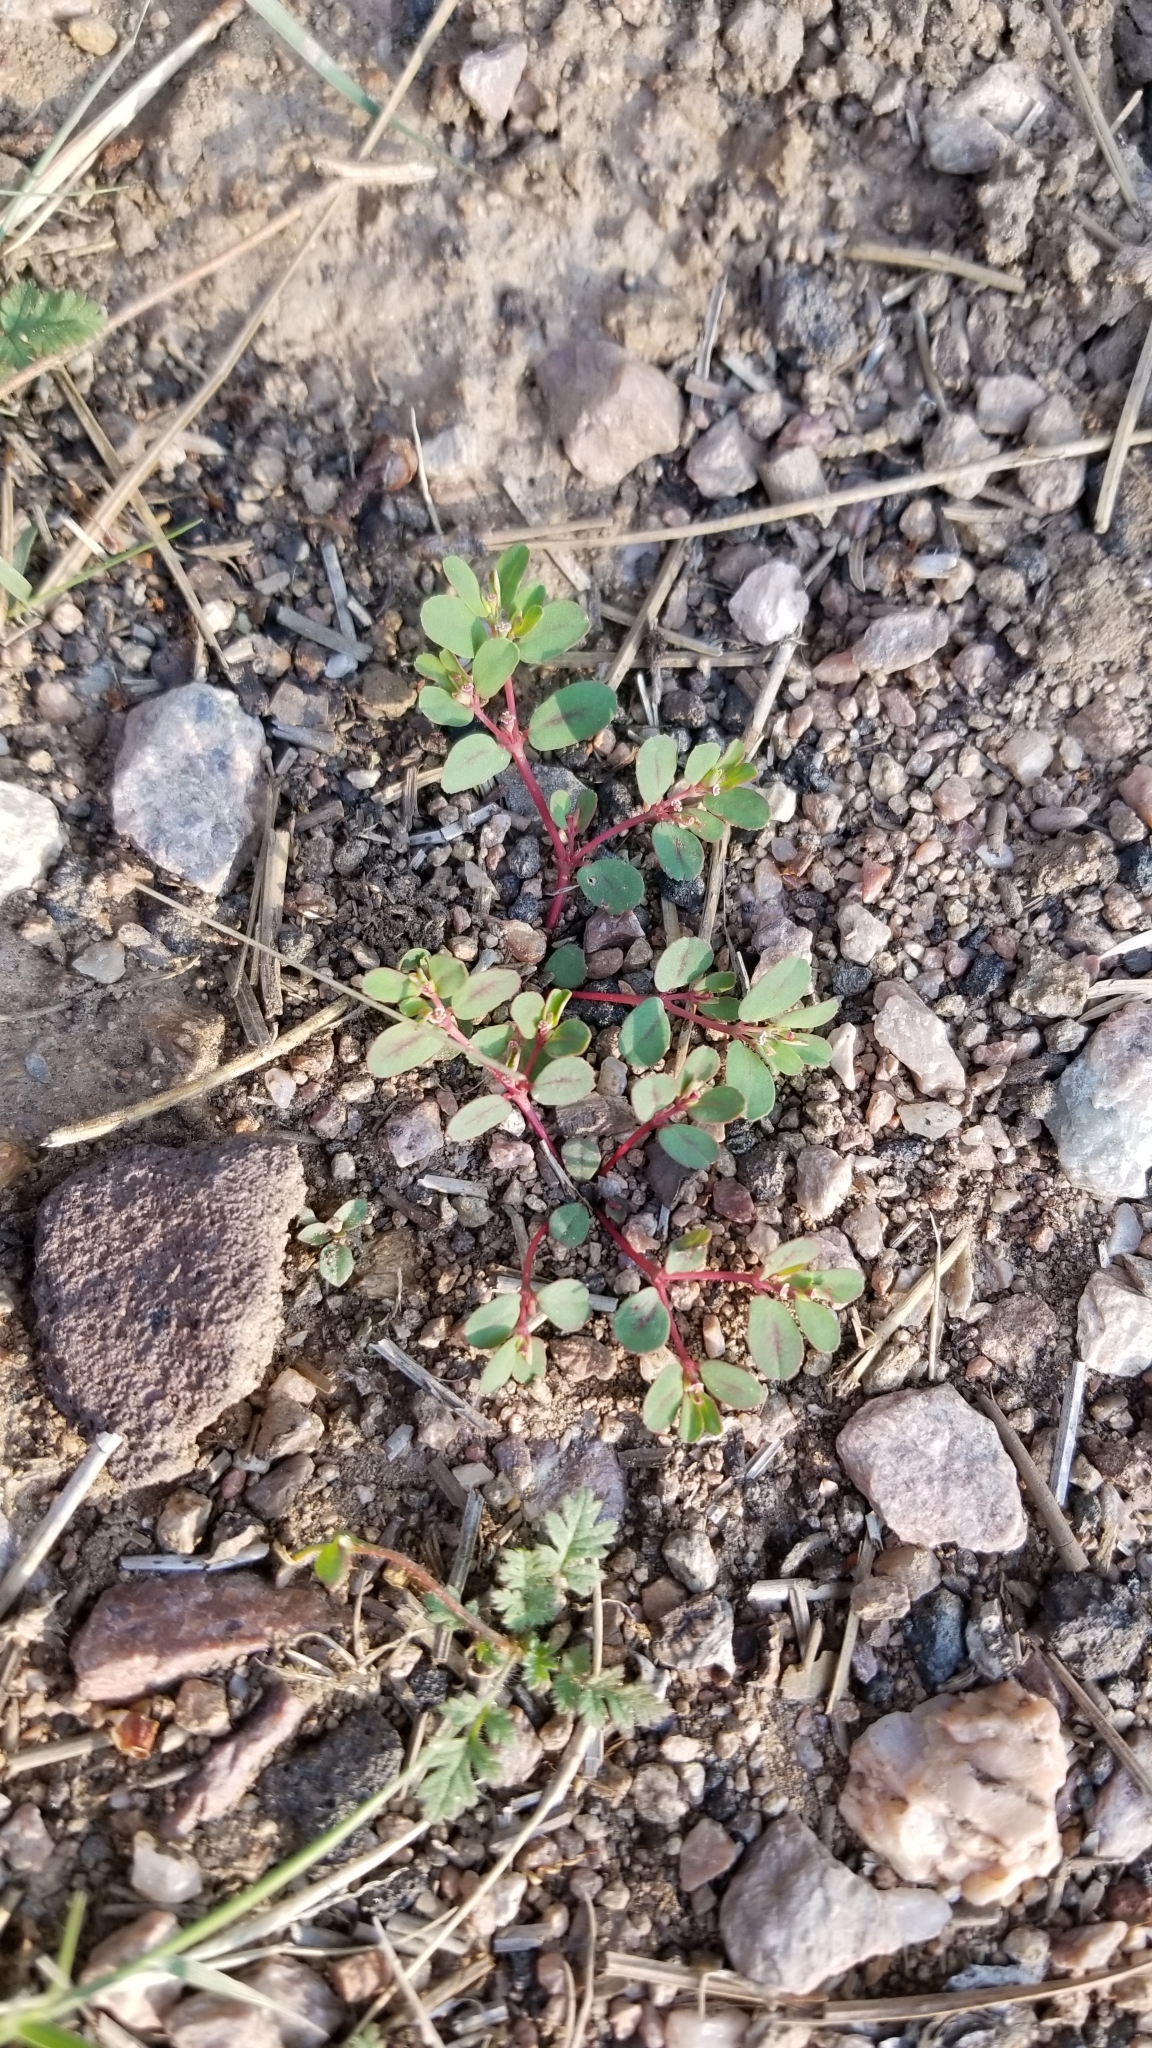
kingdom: Plantae
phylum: Tracheophyta
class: Magnoliopsida
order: Malpighiales
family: Euphorbiaceae
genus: Euphorbia
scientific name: Euphorbia serpillifolia
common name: Thyme-leaf spurge
